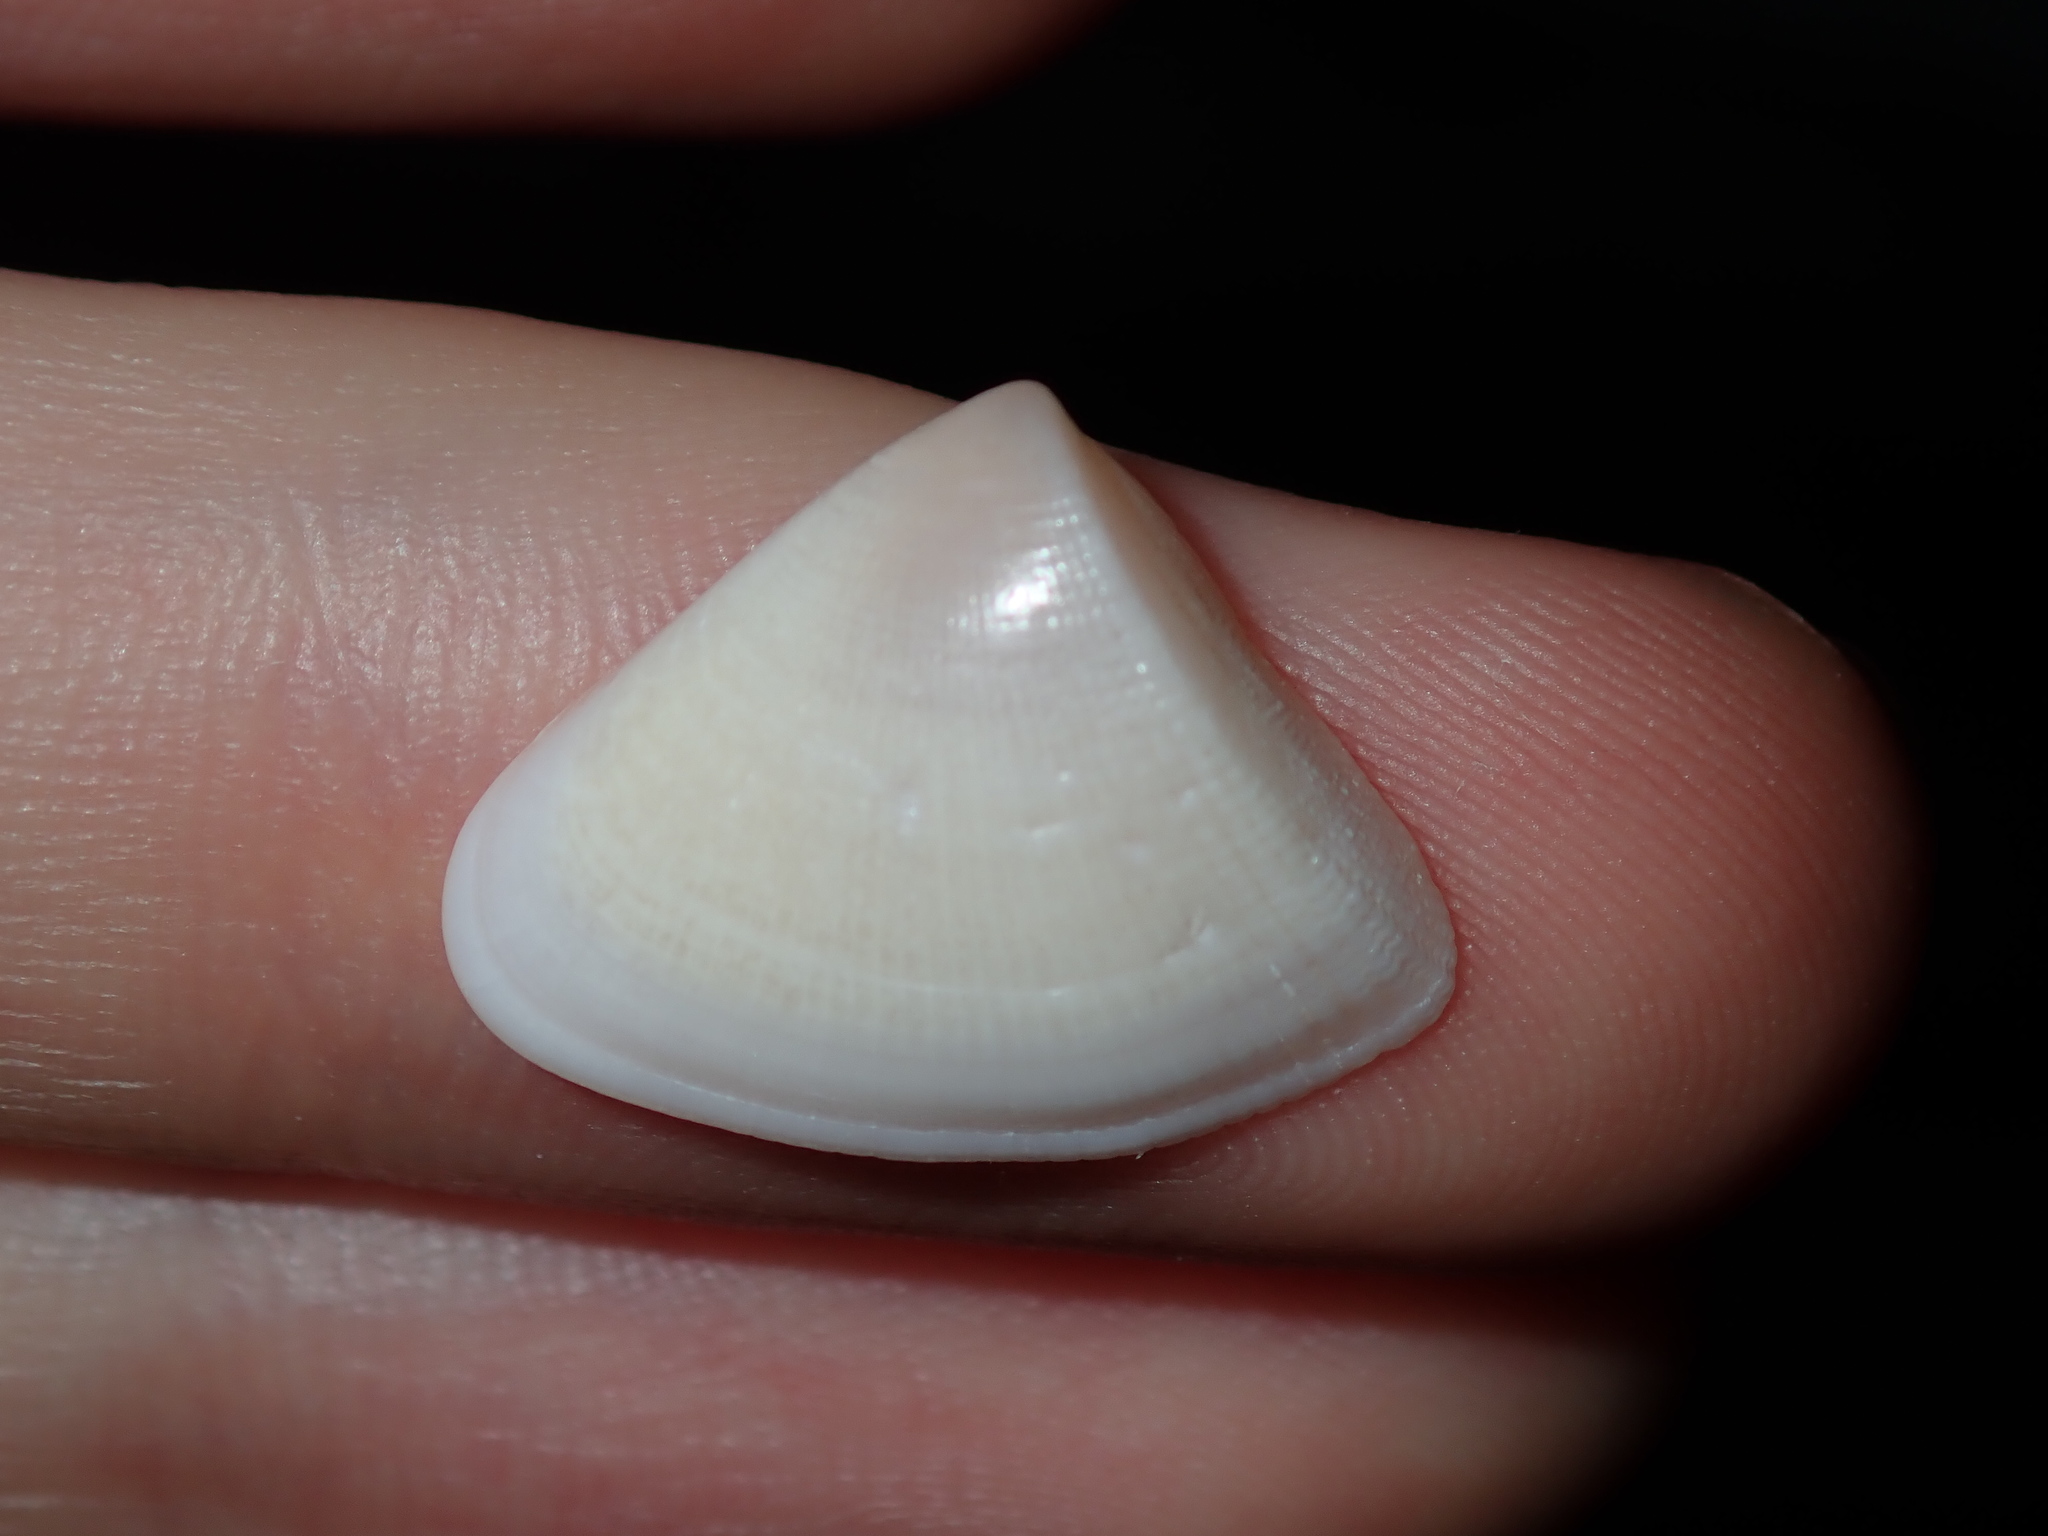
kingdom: Animalia
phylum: Mollusca
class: Bivalvia
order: Cardiida
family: Donacidae
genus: Donax
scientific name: Donax brazieri
